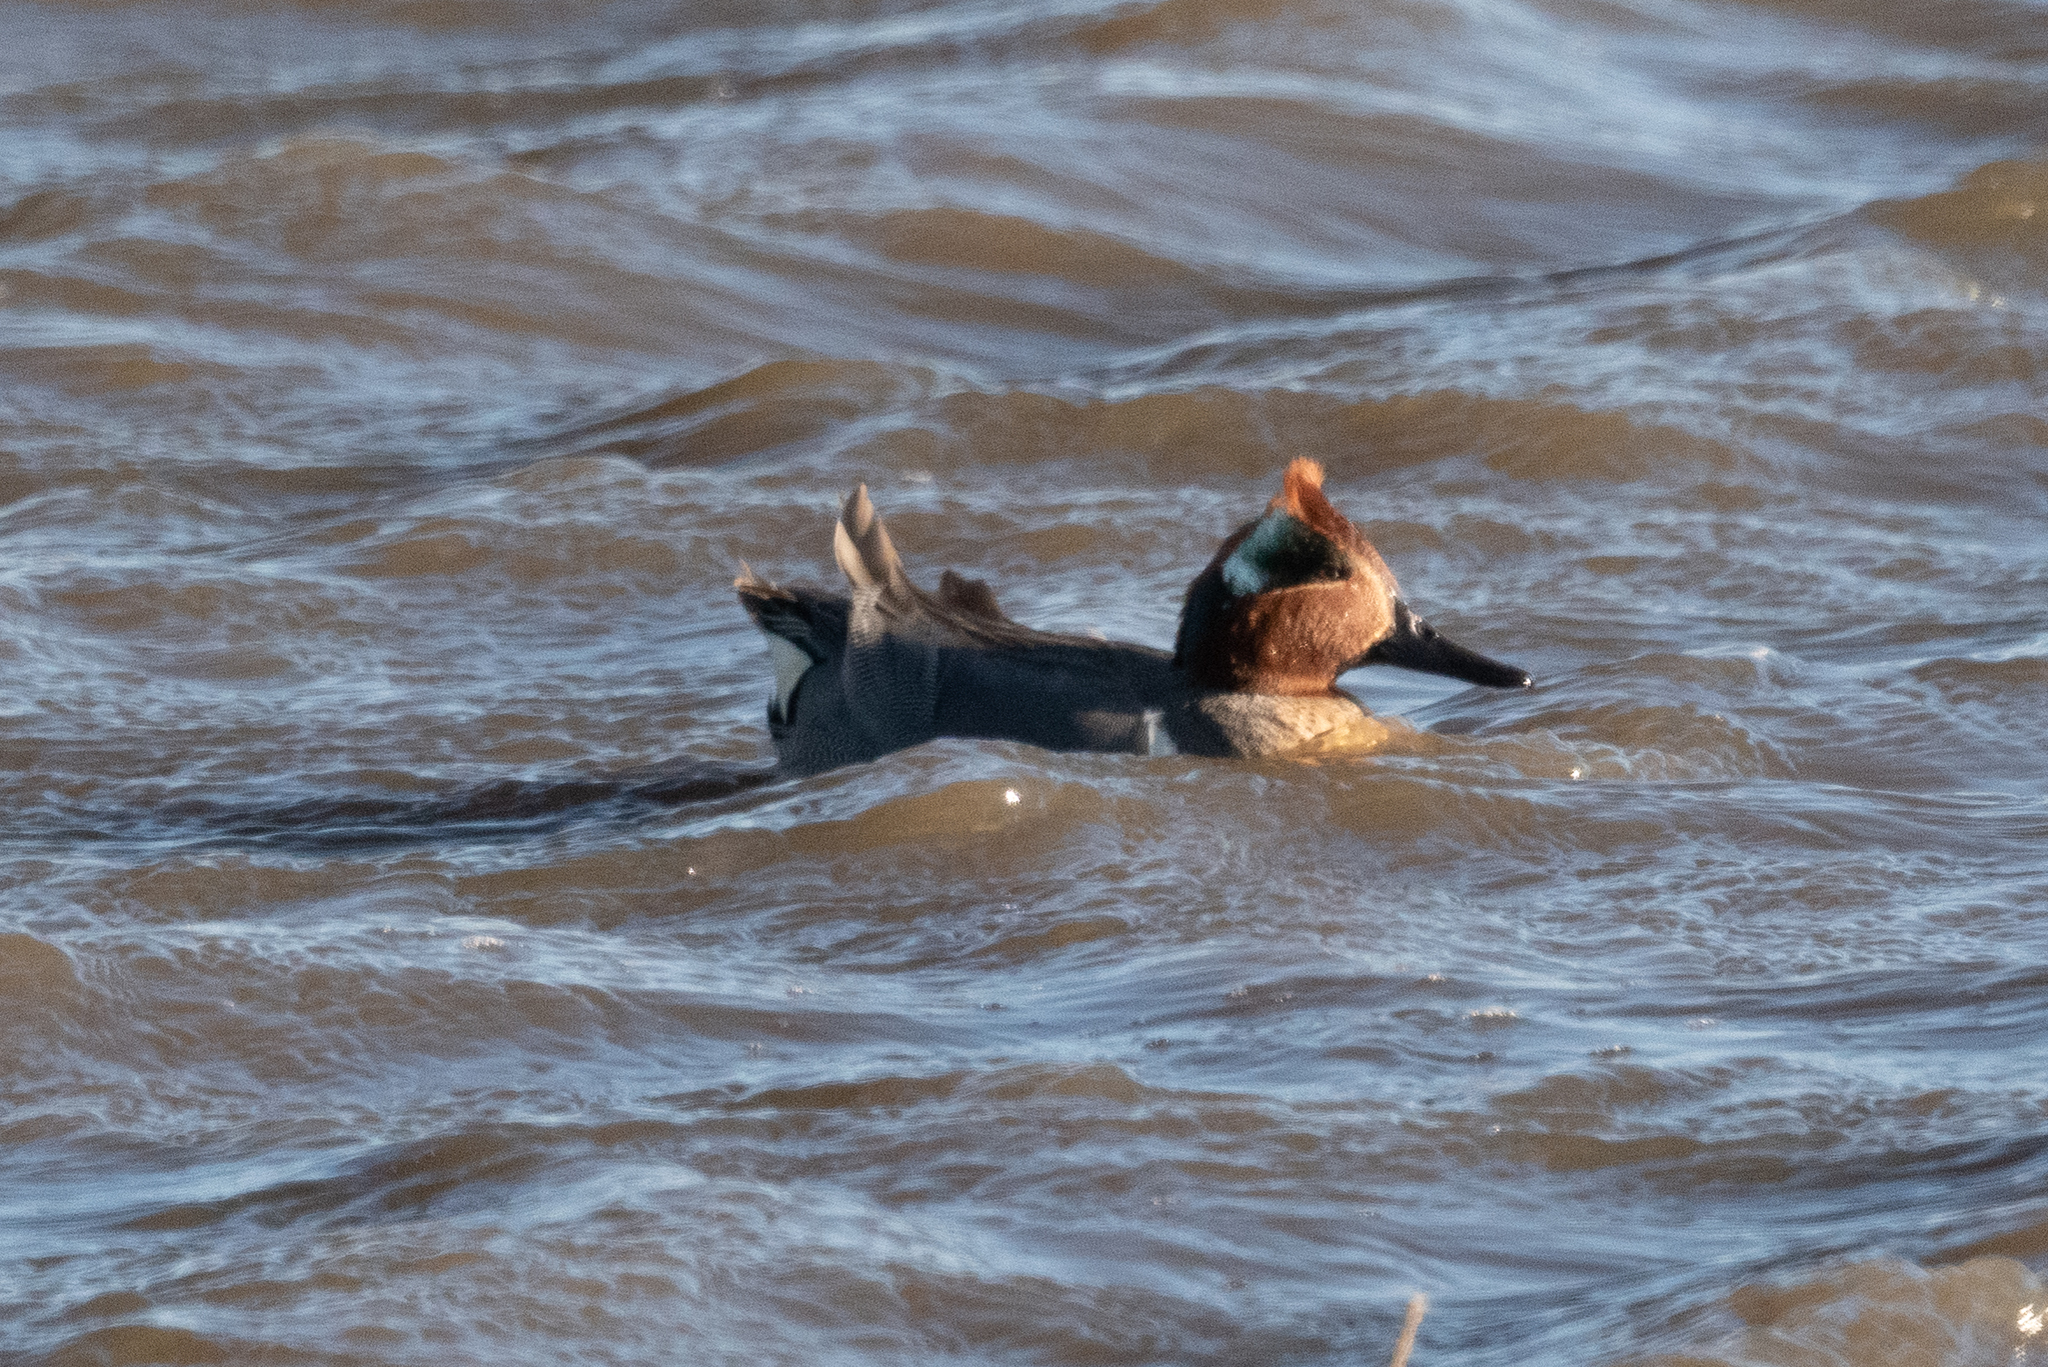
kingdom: Animalia
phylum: Chordata
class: Aves
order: Anseriformes
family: Anatidae
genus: Anas
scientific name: Anas crecca
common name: Eurasian teal
